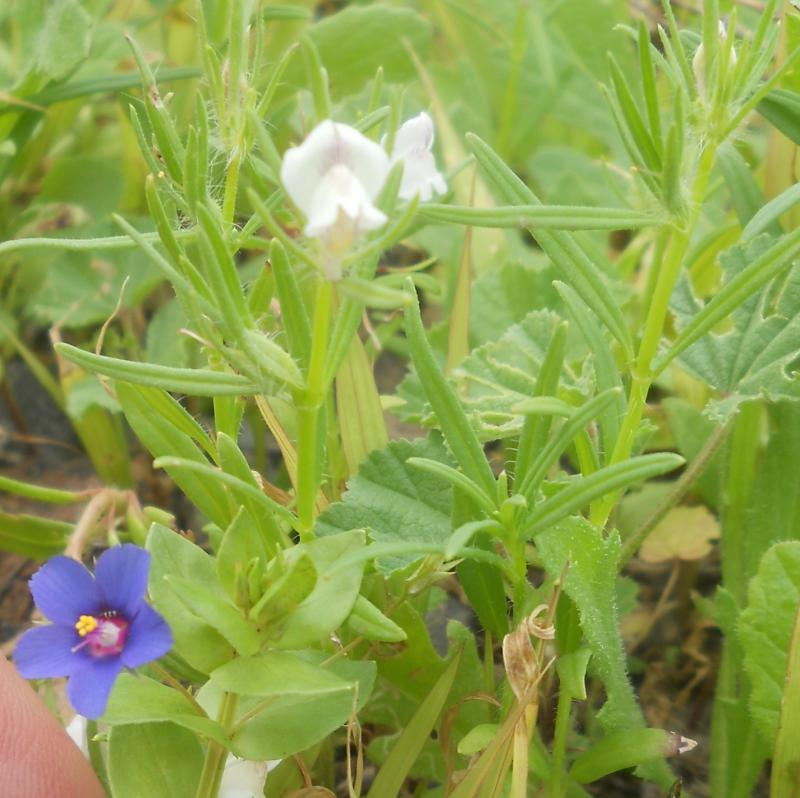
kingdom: Plantae
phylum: Tracheophyta
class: Magnoliopsida
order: Lamiales
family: Plantaginaceae
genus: Misopates
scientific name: Misopates orontium
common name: Weasel's-snout
